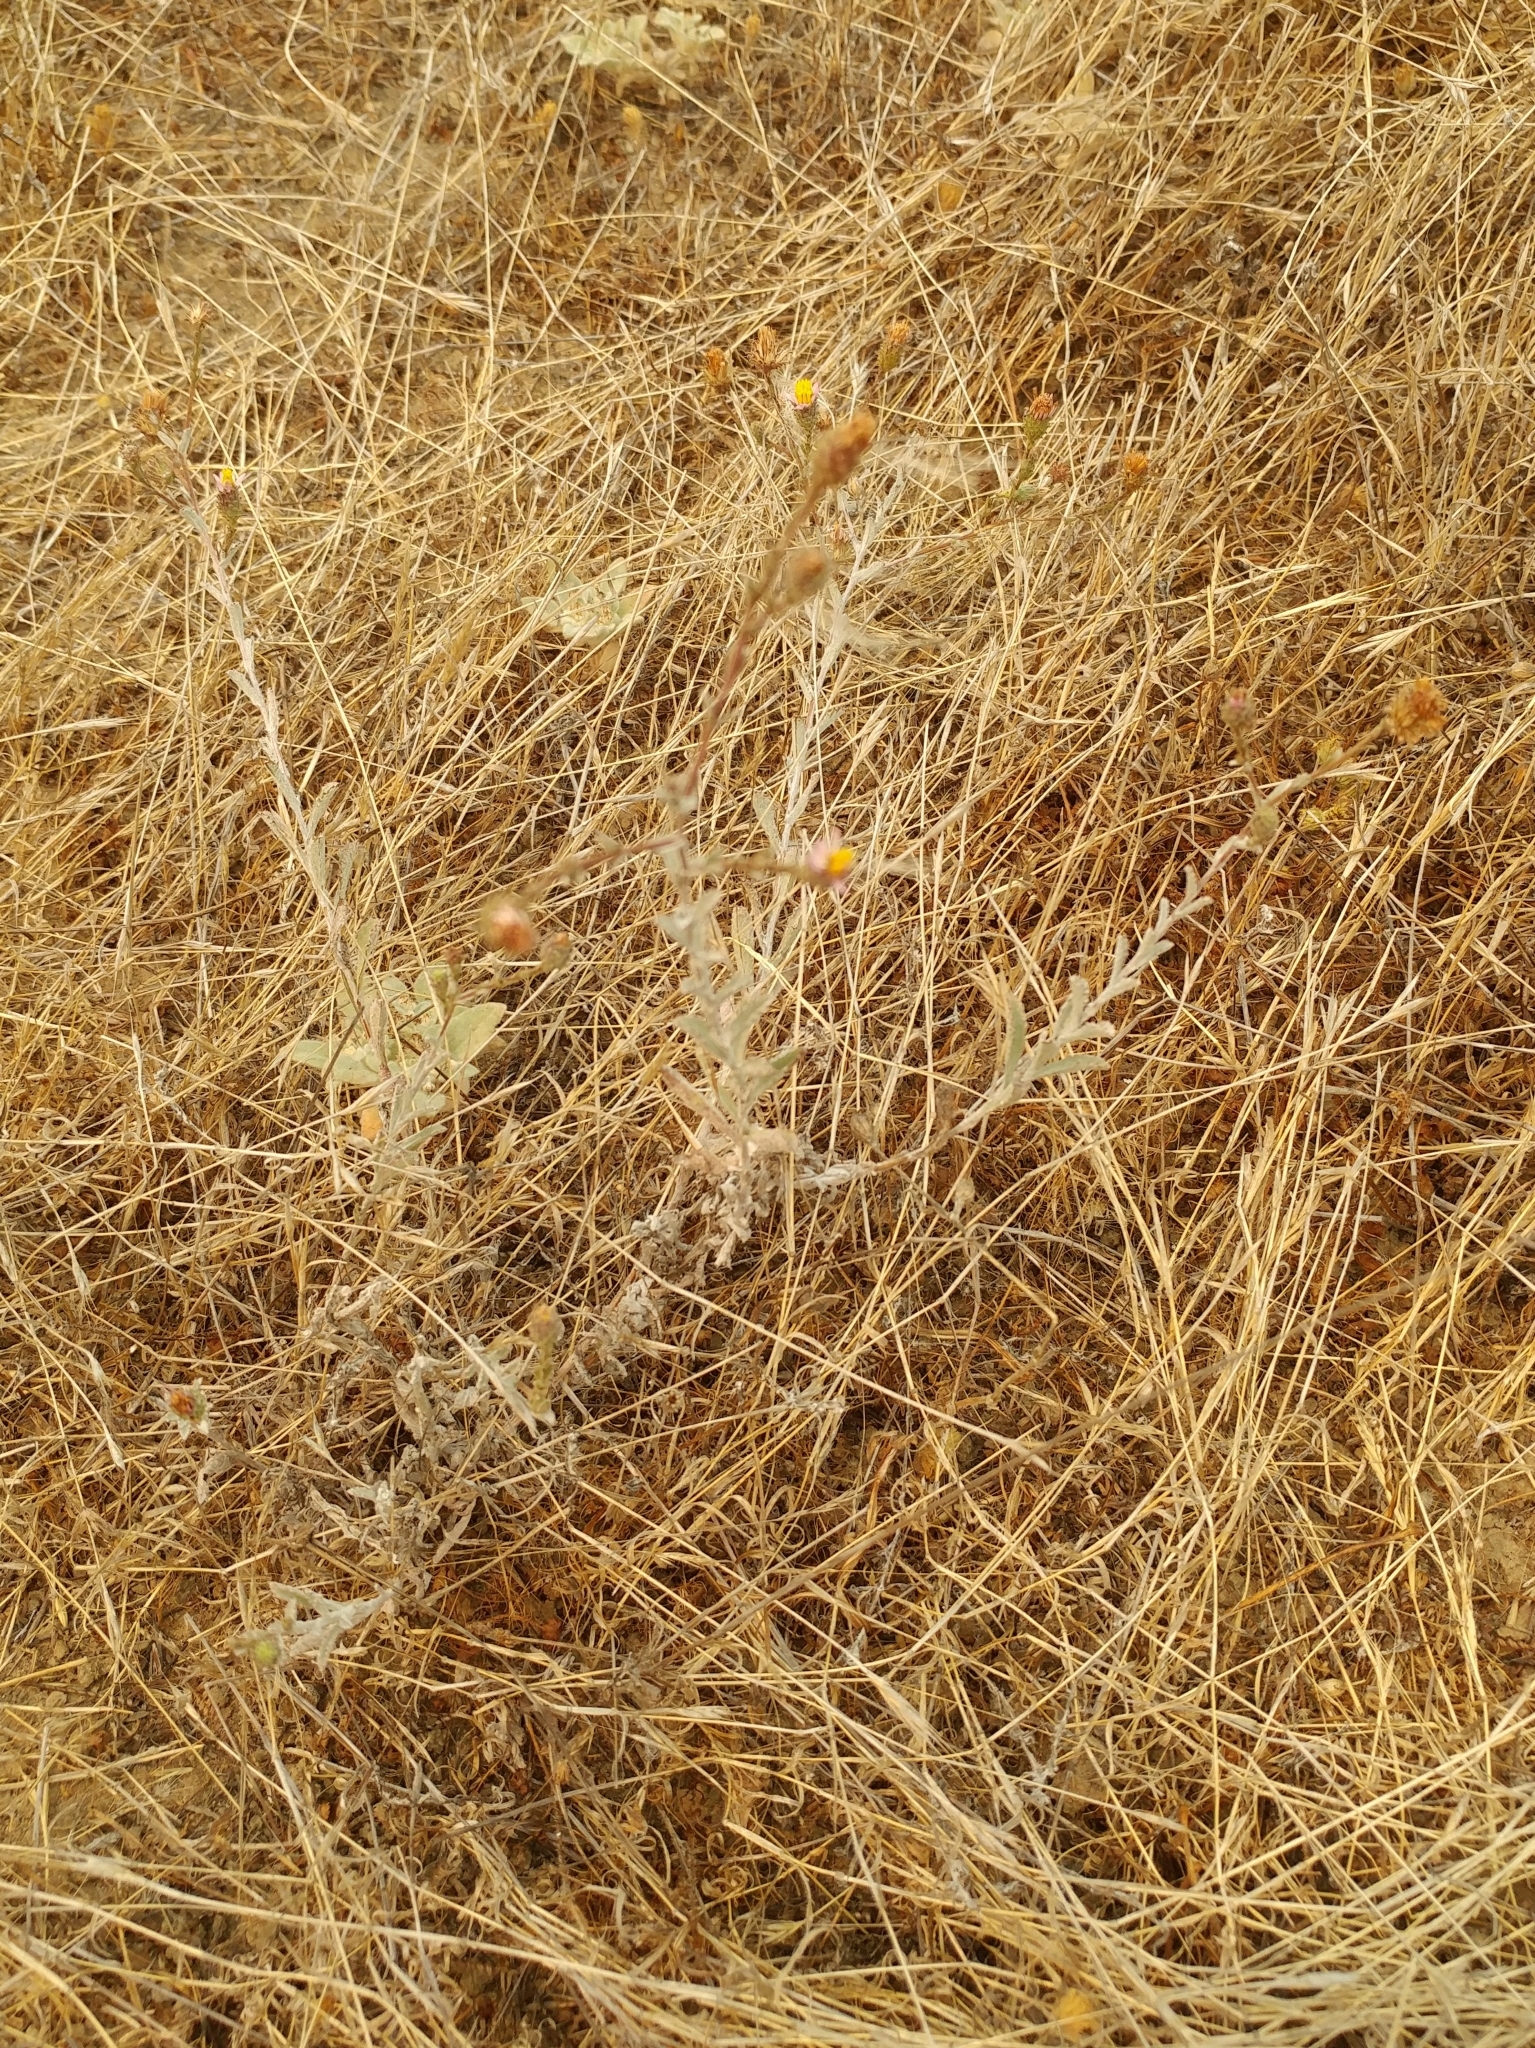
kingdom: Plantae
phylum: Tracheophyta
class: Magnoliopsida
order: Asterales
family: Asteraceae
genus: Corethrogyne
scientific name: Corethrogyne filaginifolia
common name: Sand-aster
